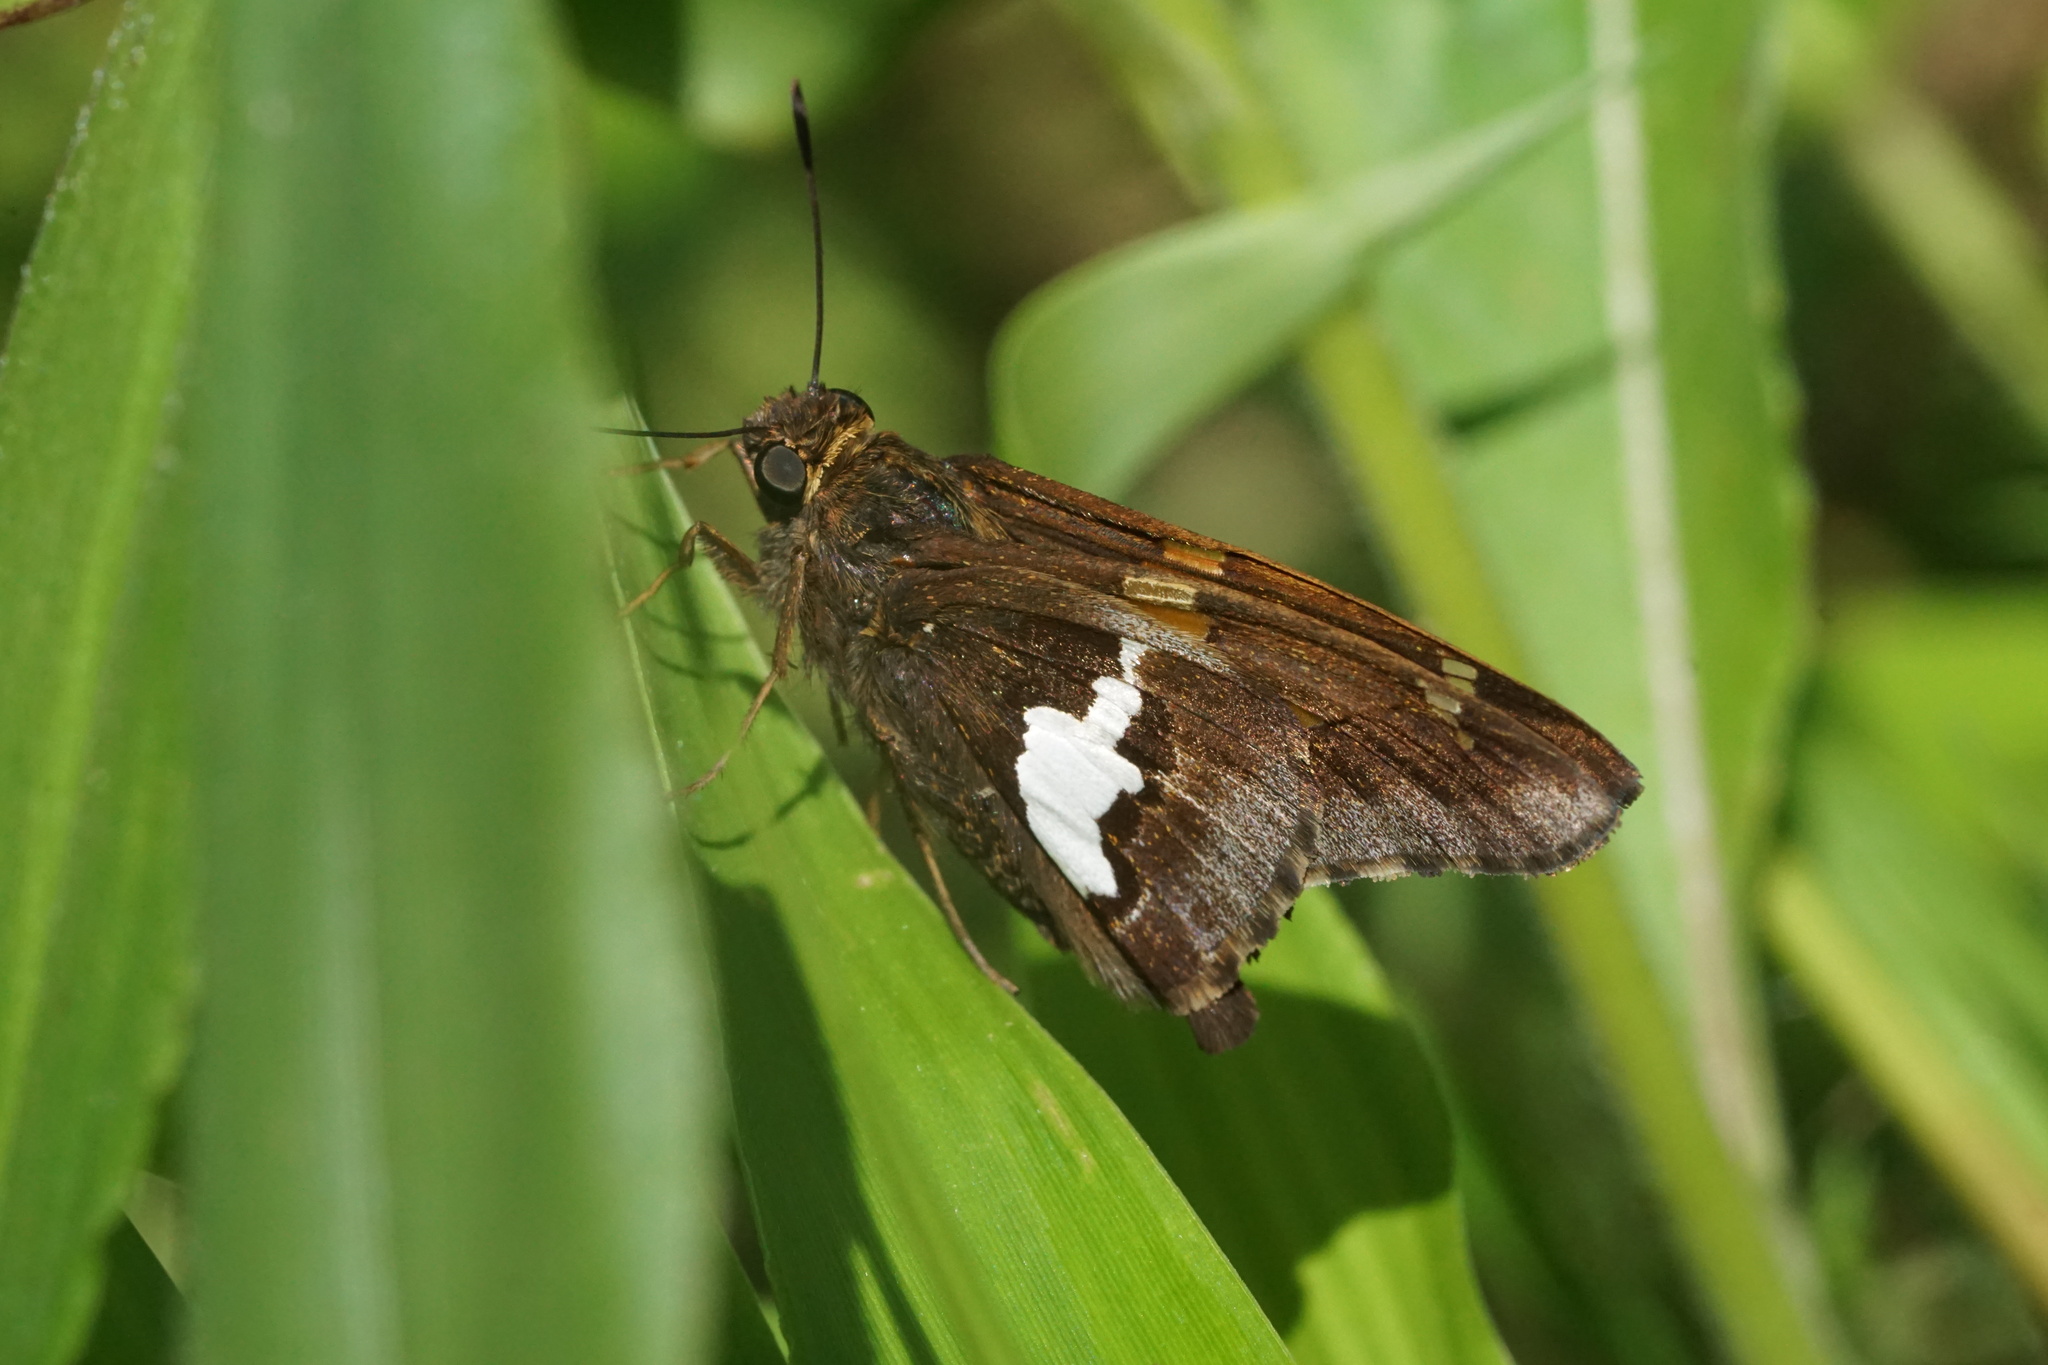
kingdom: Animalia
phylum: Arthropoda
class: Insecta
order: Lepidoptera
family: Hesperiidae
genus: Epargyreus
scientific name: Epargyreus clarus
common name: Silver-spotted skipper
